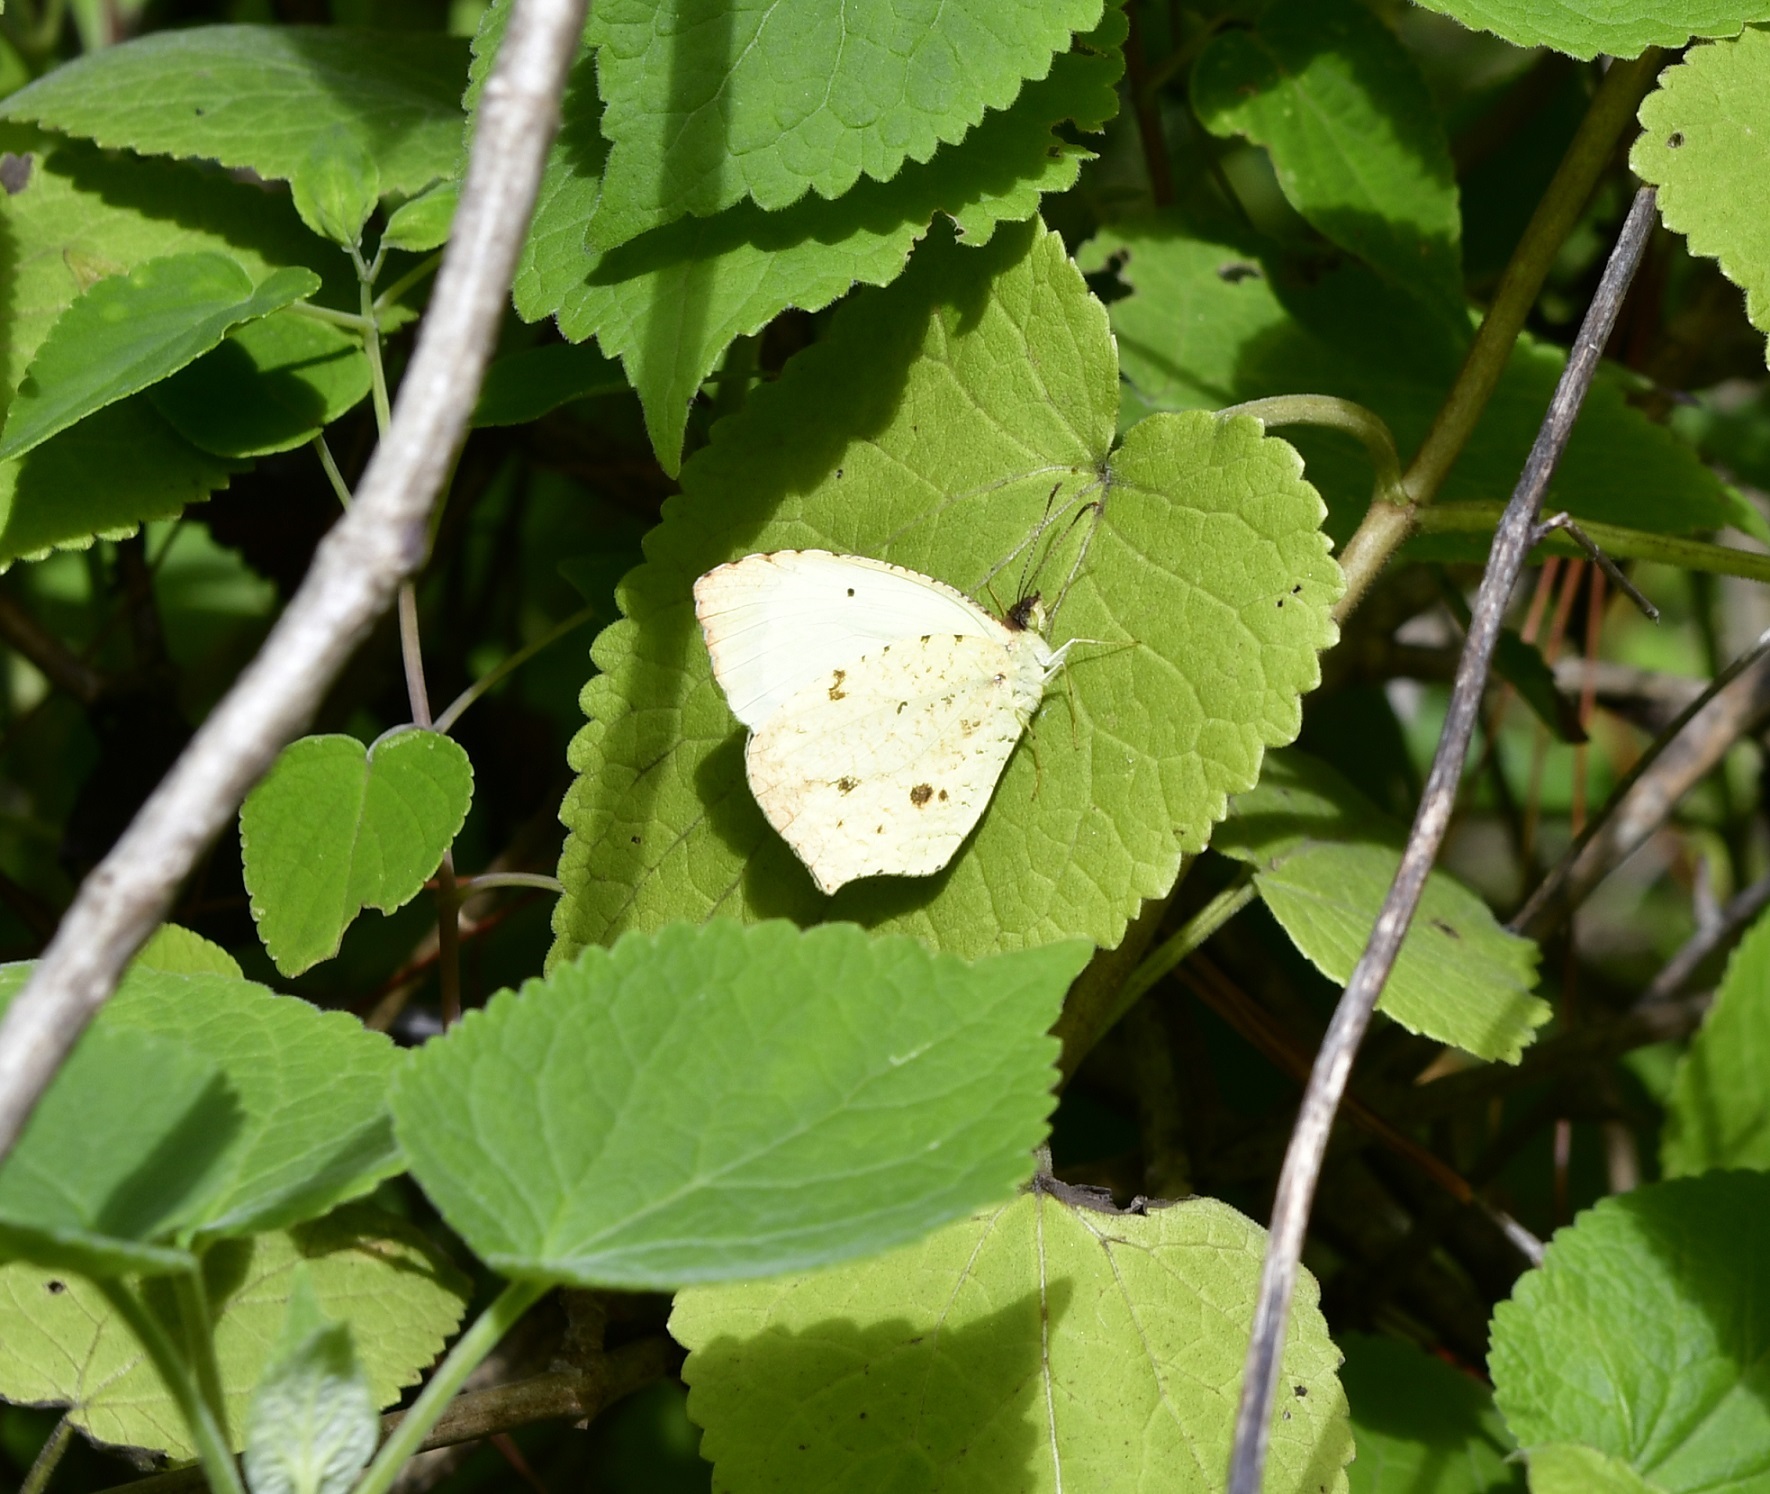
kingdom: Animalia
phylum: Arthropoda
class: Insecta
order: Lepidoptera
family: Pieridae
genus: Abaeis
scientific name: Abaeis salome
